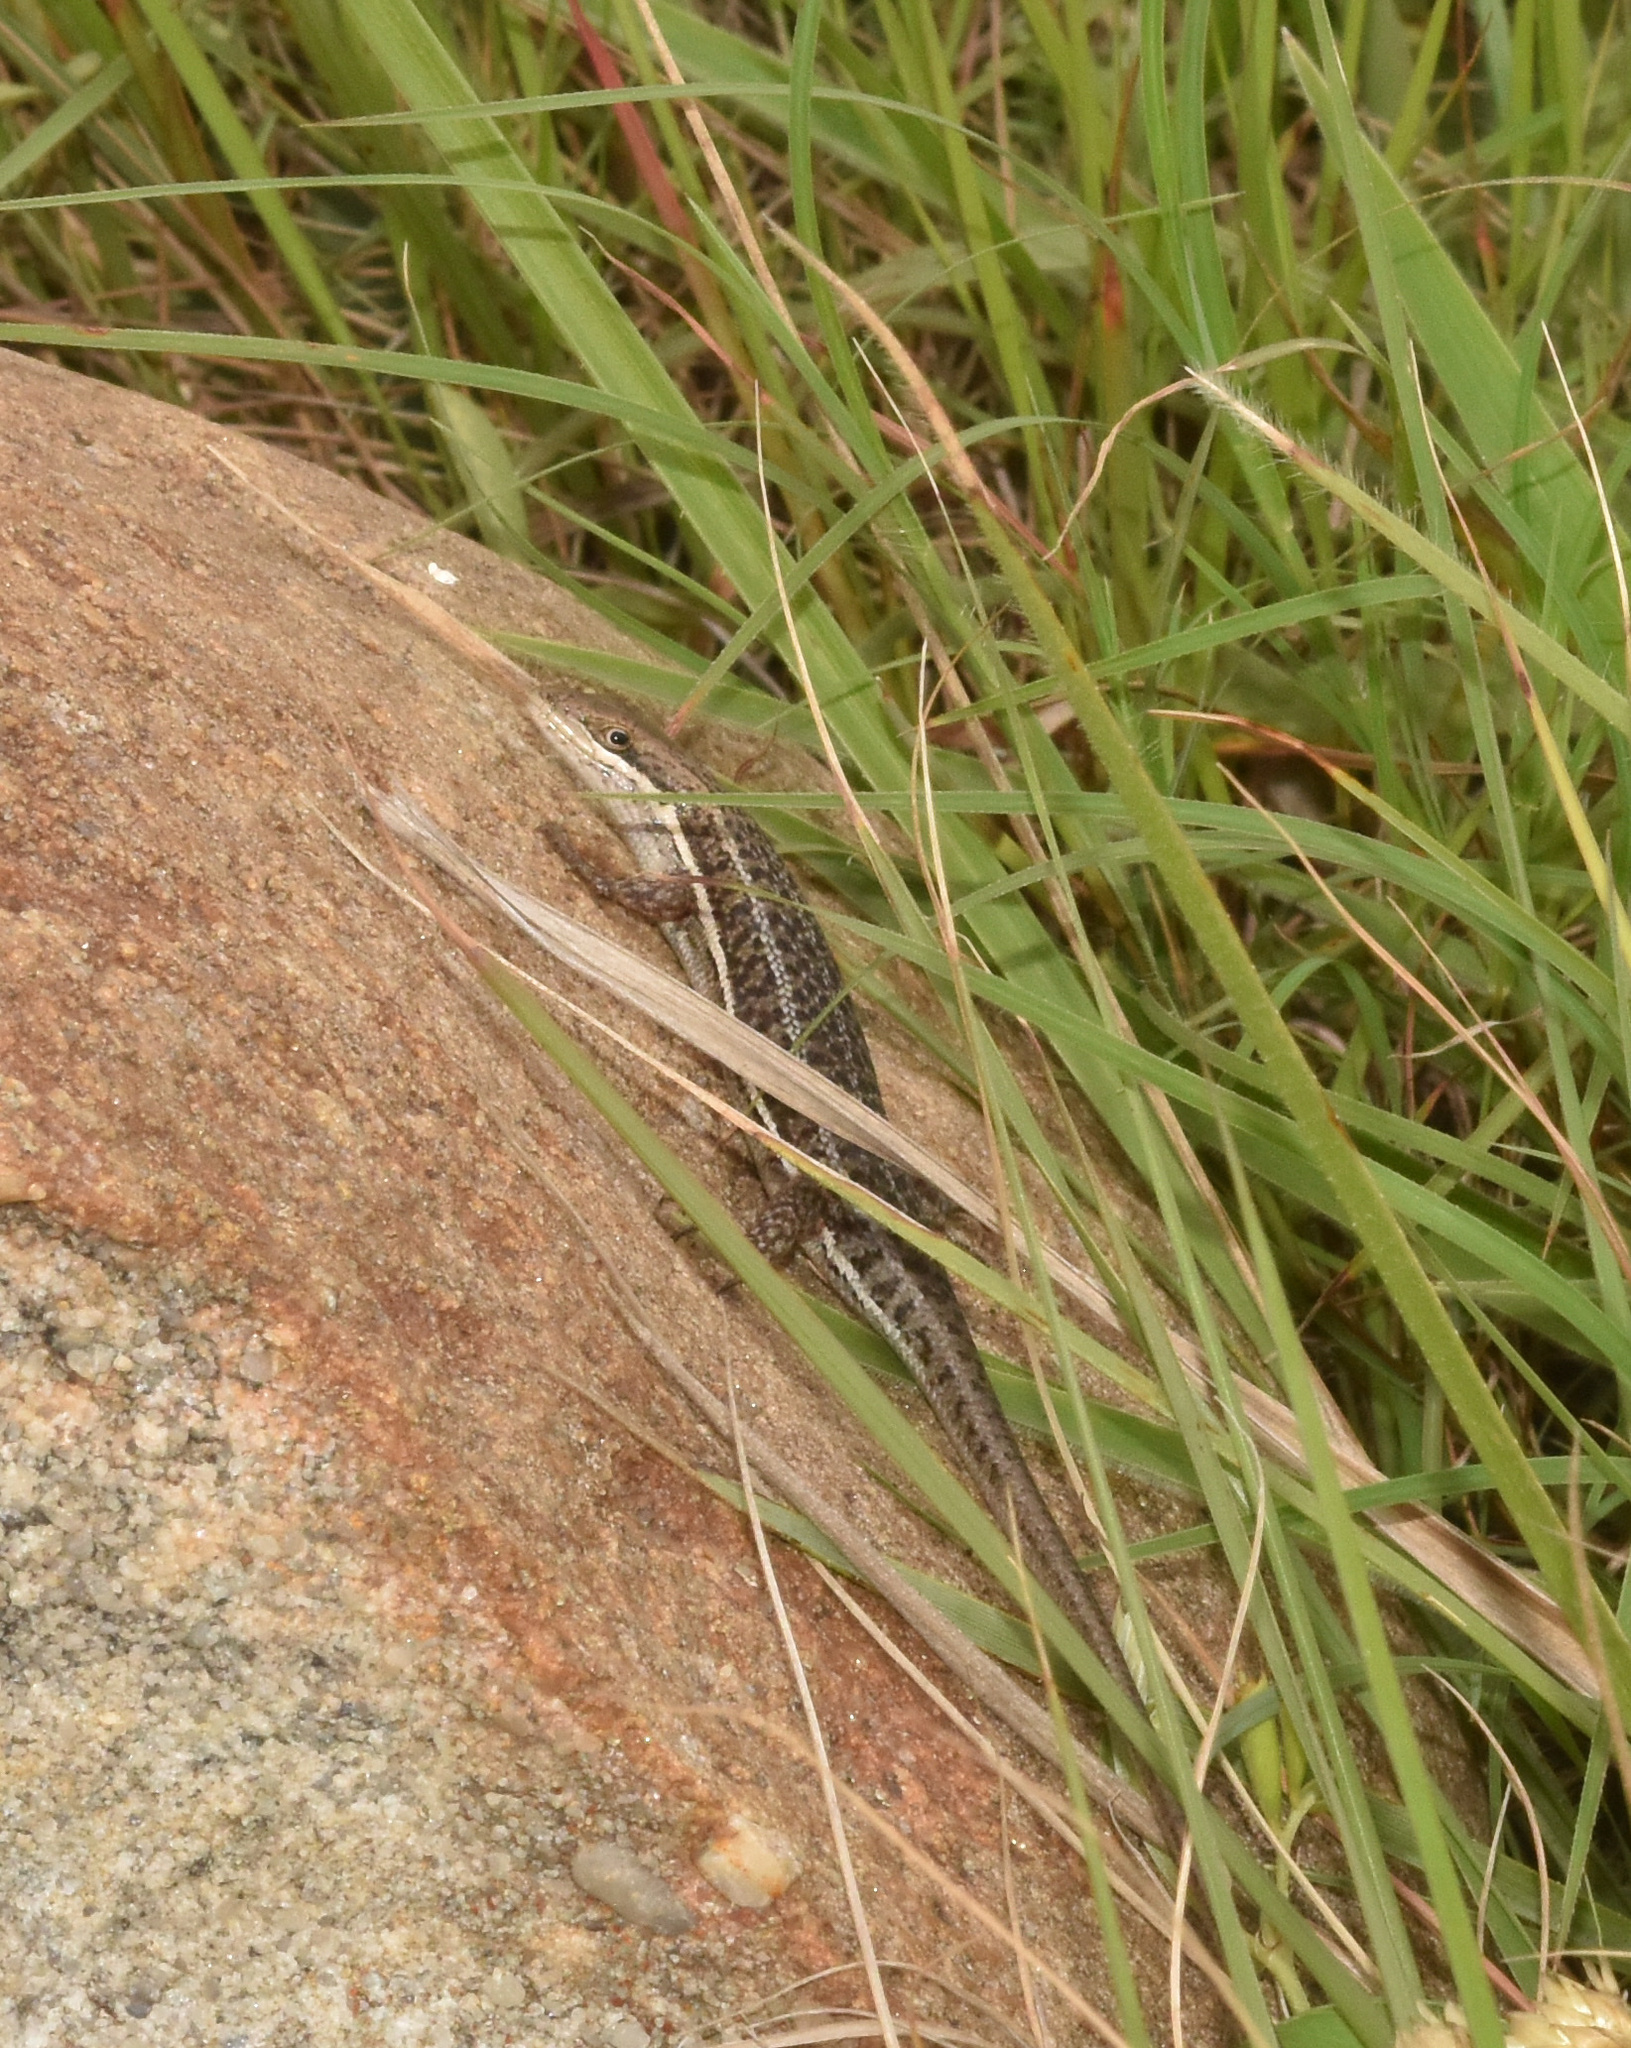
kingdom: Animalia
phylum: Chordata
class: Squamata
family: Scincidae
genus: Trachylepis
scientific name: Trachylepis varia
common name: Eastern variable skink
